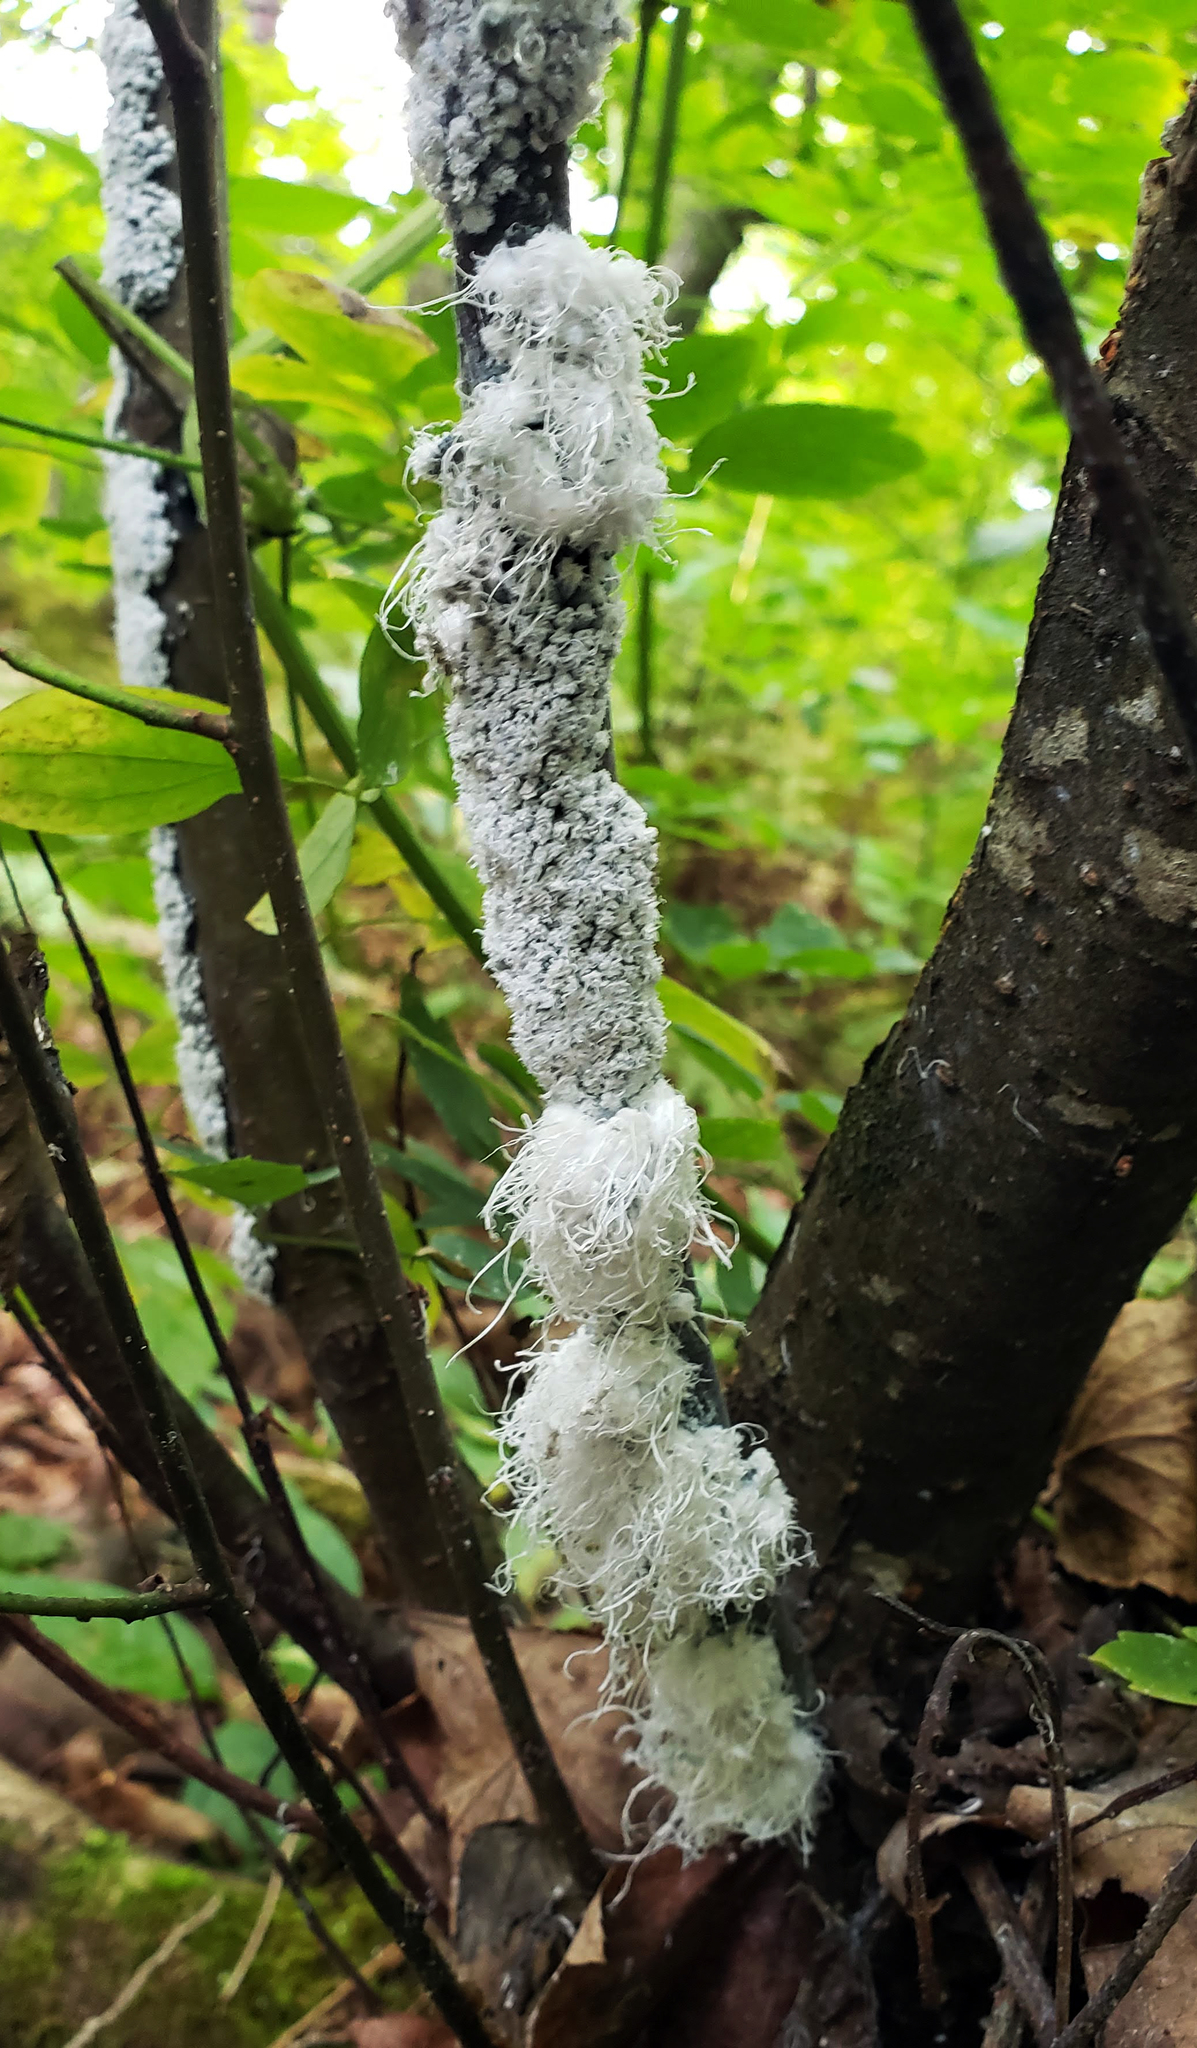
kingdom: Animalia
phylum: Arthropoda
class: Insecta
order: Hemiptera
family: Aphididae
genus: Prociphilus
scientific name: Prociphilus tessellatus
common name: Woolly alder aphid
